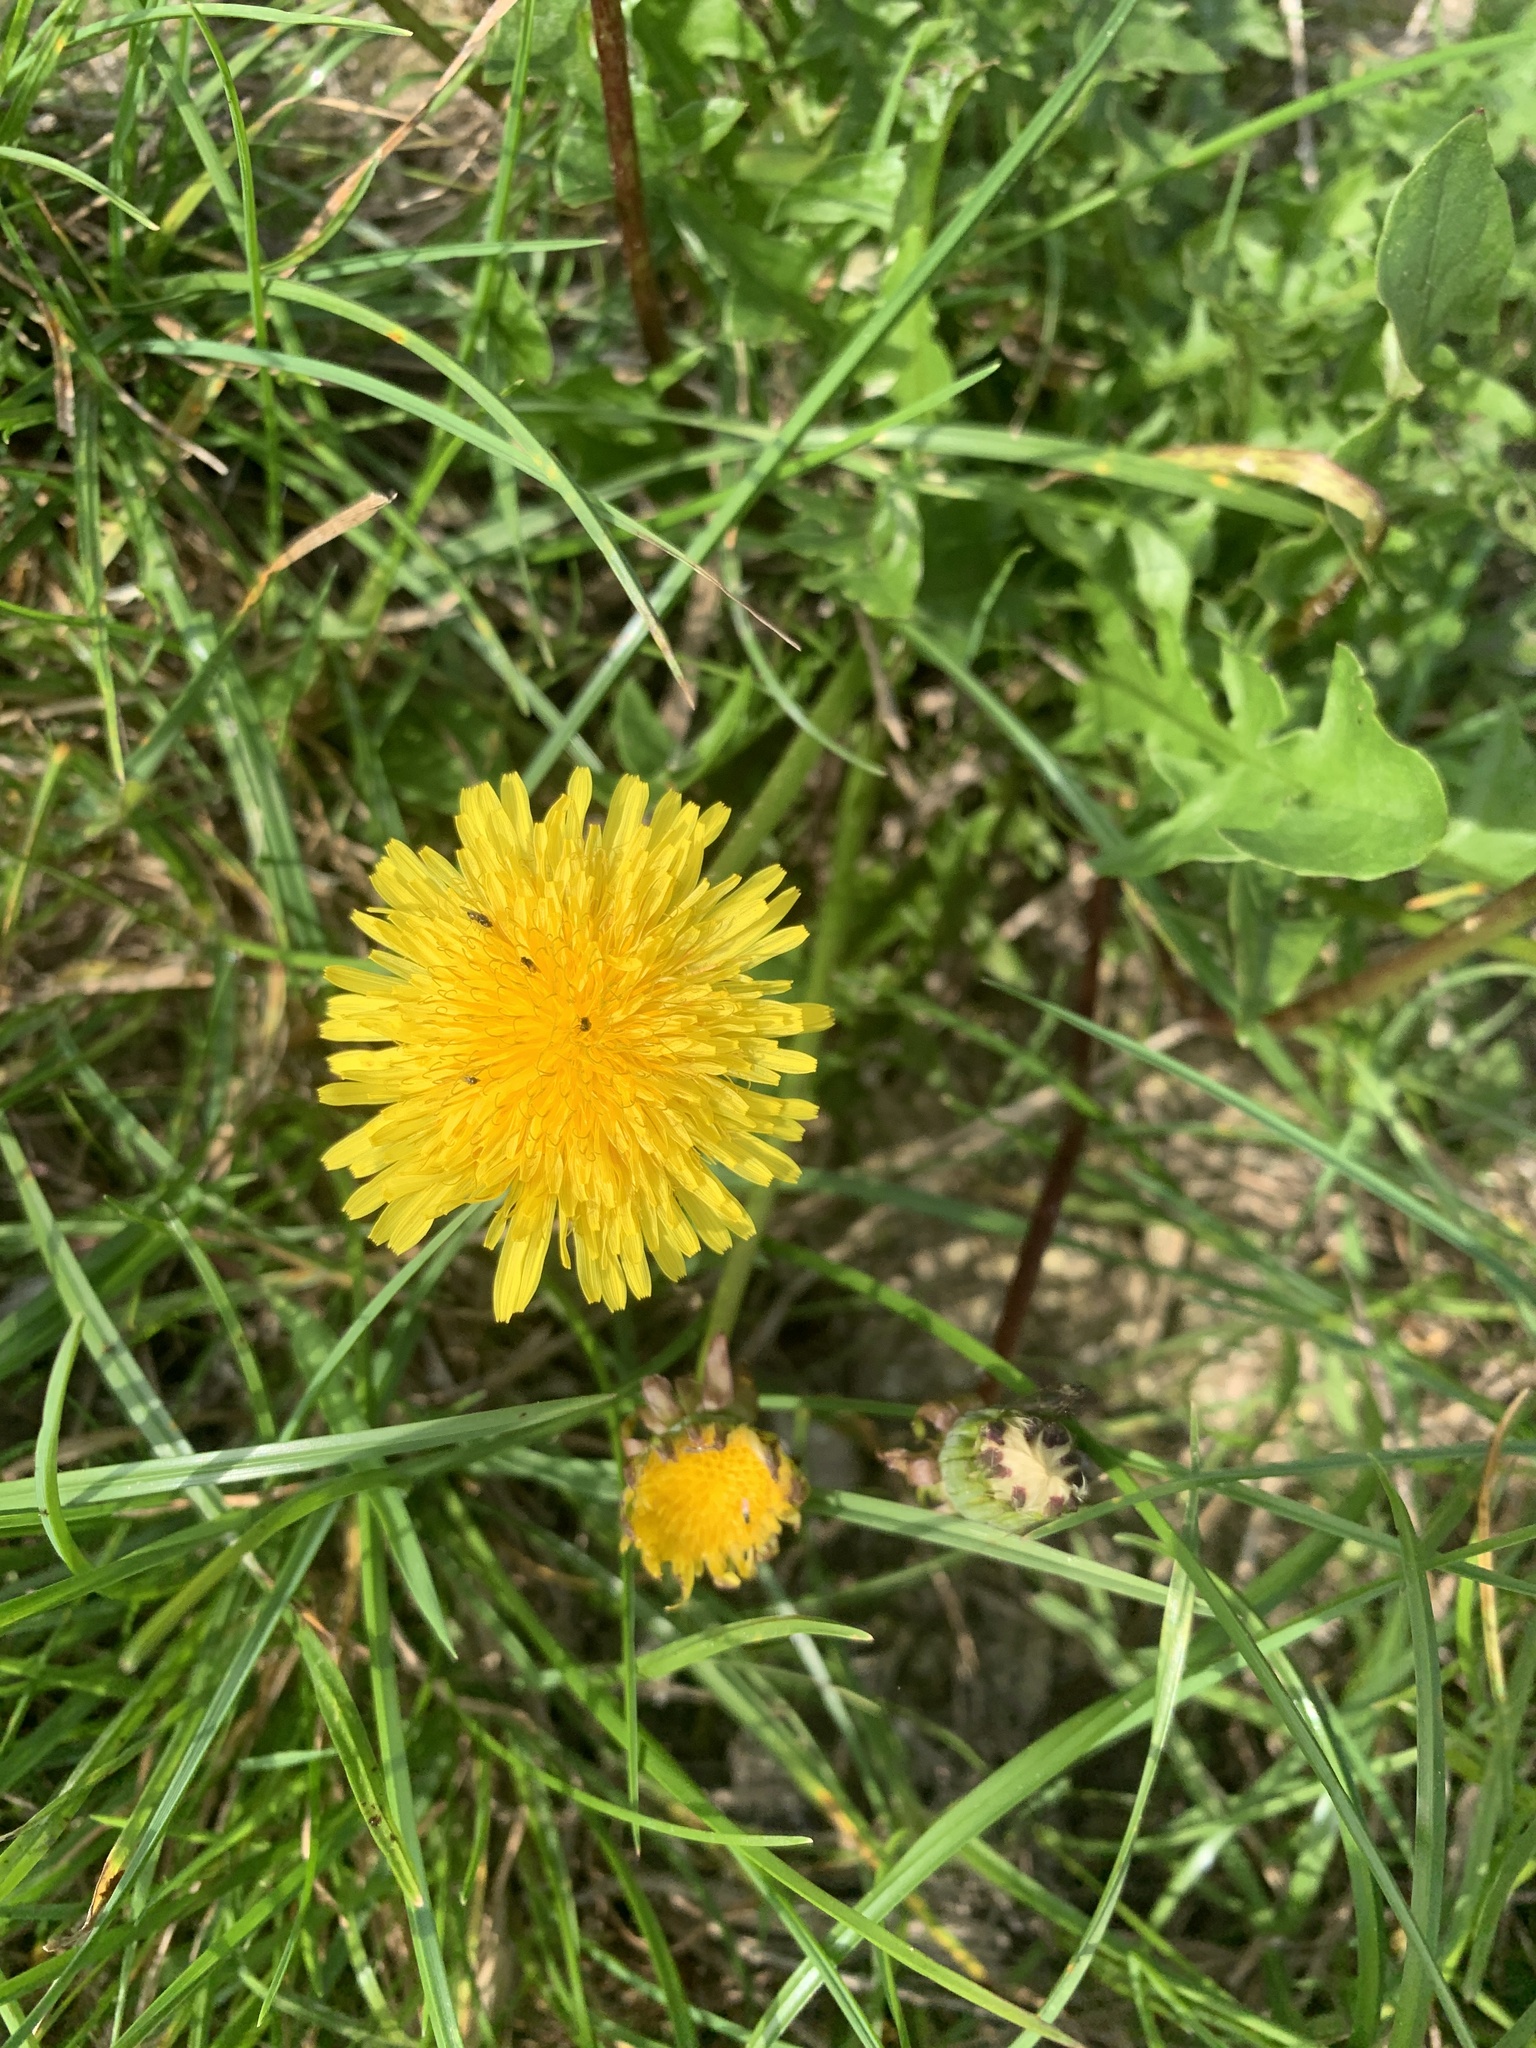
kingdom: Plantae
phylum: Tracheophyta
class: Magnoliopsida
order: Asterales
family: Asteraceae
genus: Taraxacum
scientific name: Taraxacum officinale
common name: Common dandelion
